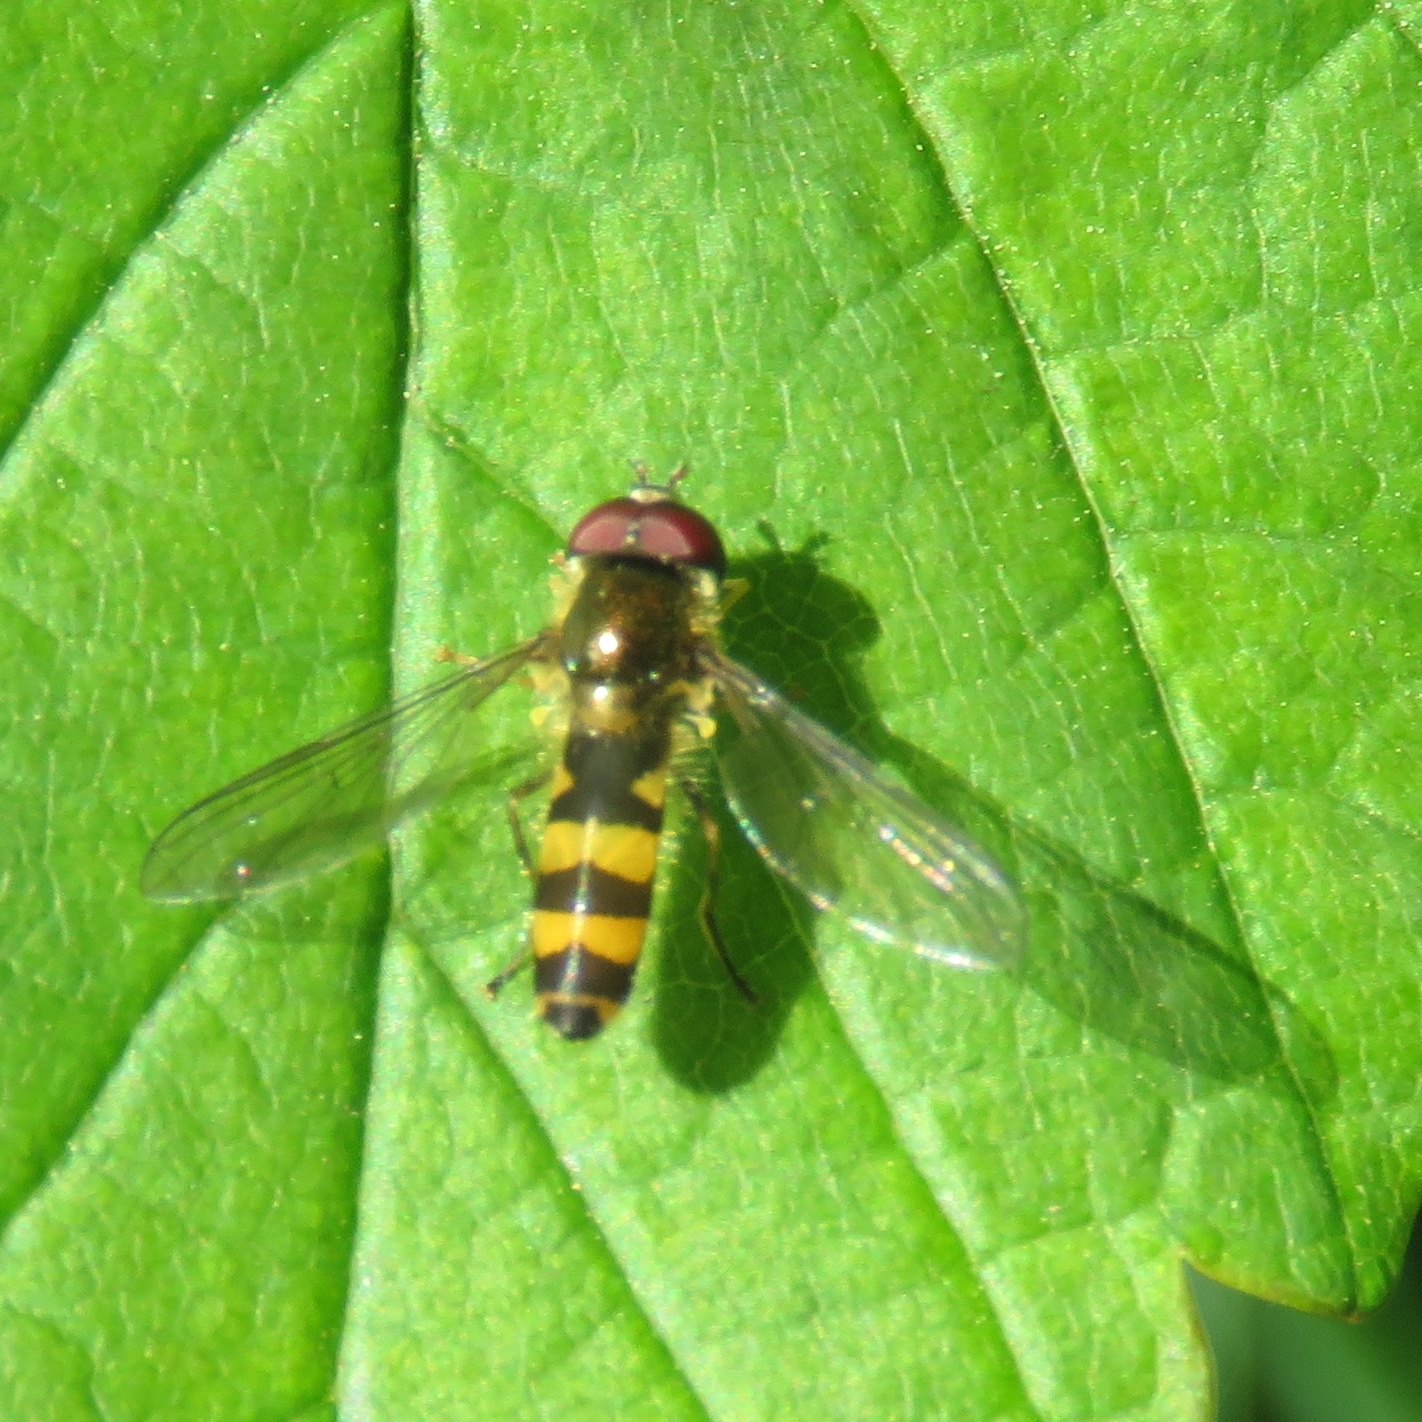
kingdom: Animalia
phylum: Arthropoda
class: Insecta
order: Diptera
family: Syrphidae
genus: Fagisyrphus
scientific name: Fagisyrphus cincta
